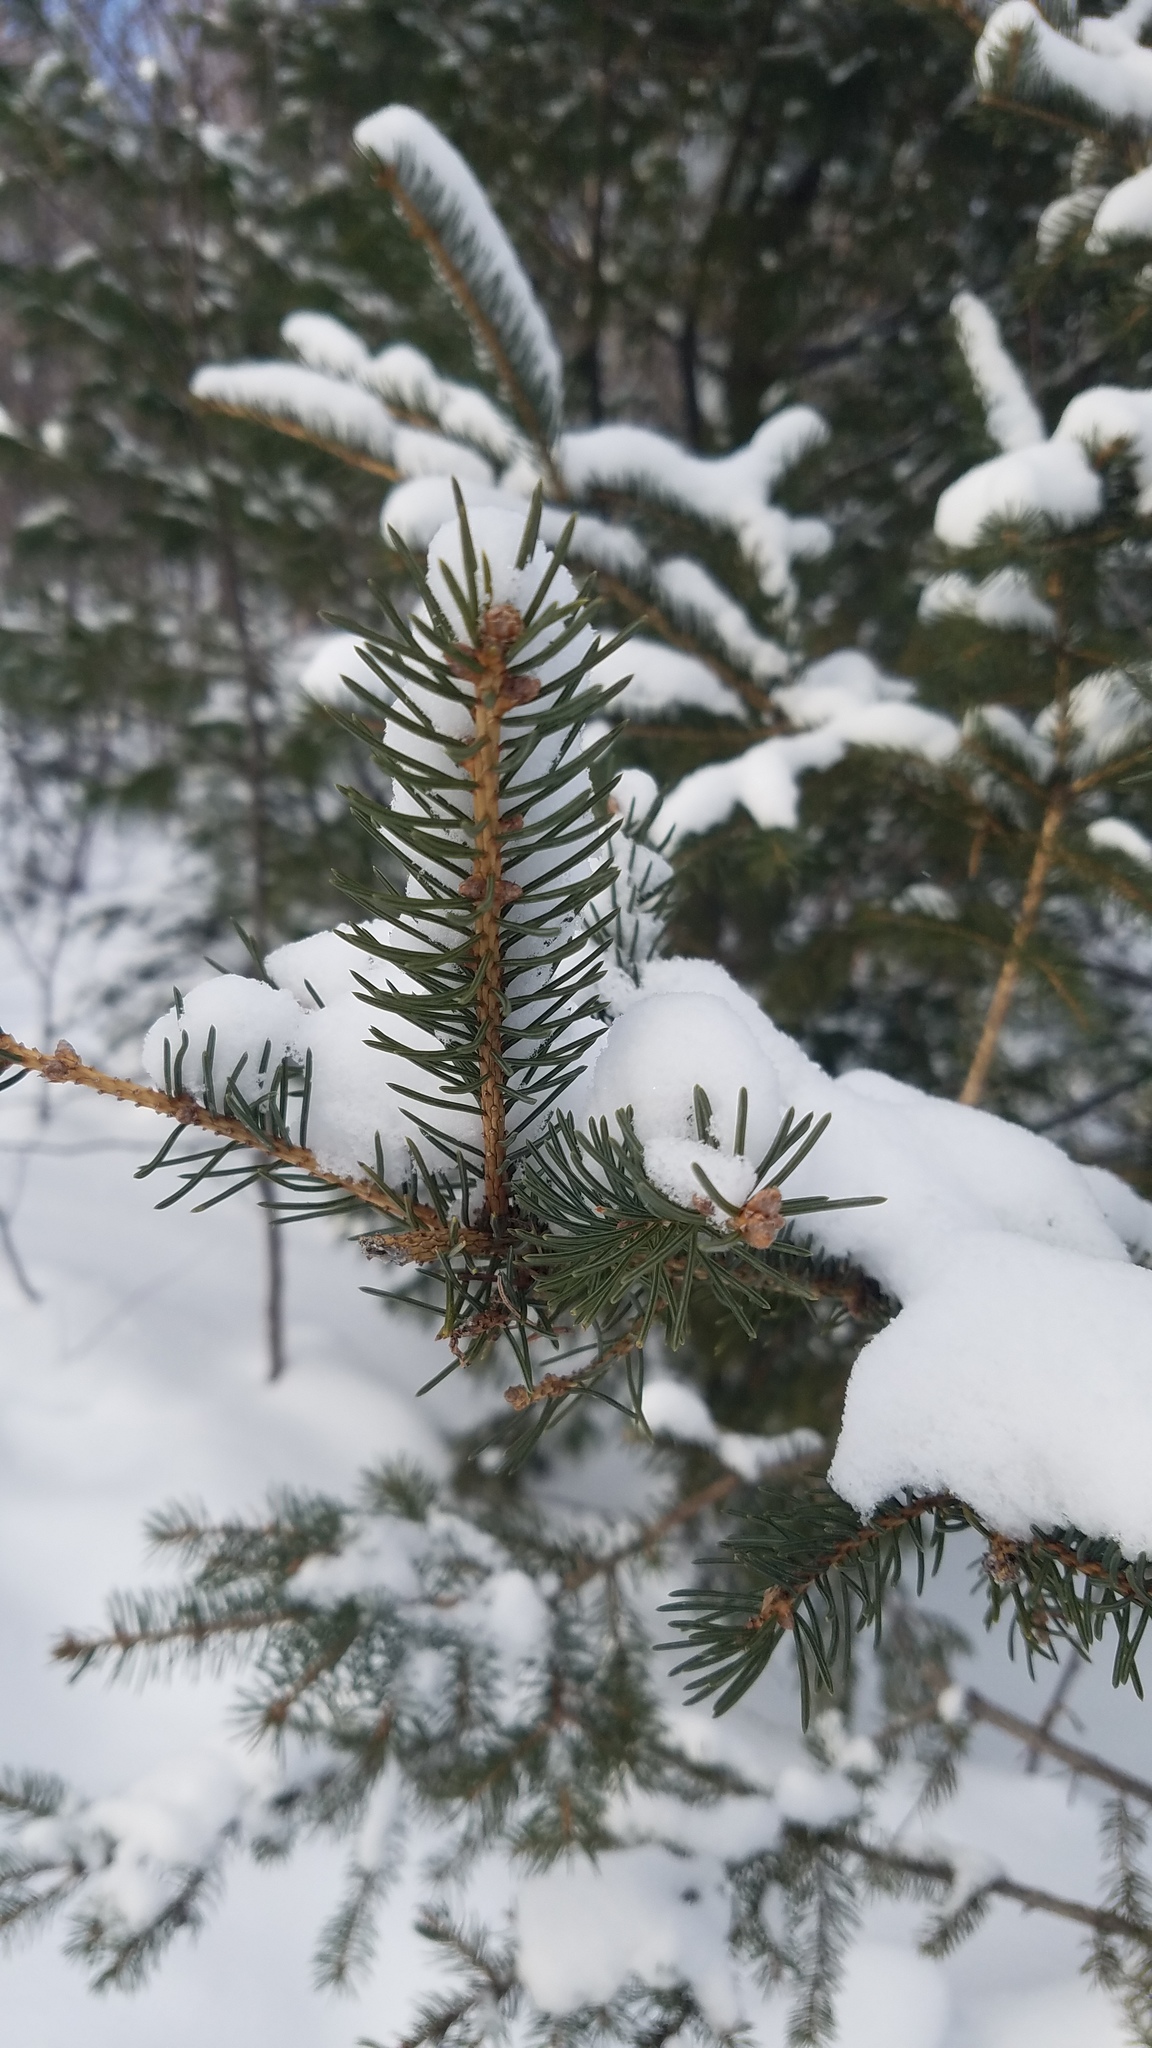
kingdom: Plantae
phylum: Tracheophyta
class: Pinopsida
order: Pinales
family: Pinaceae
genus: Picea
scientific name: Picea glauca
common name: White spruce
